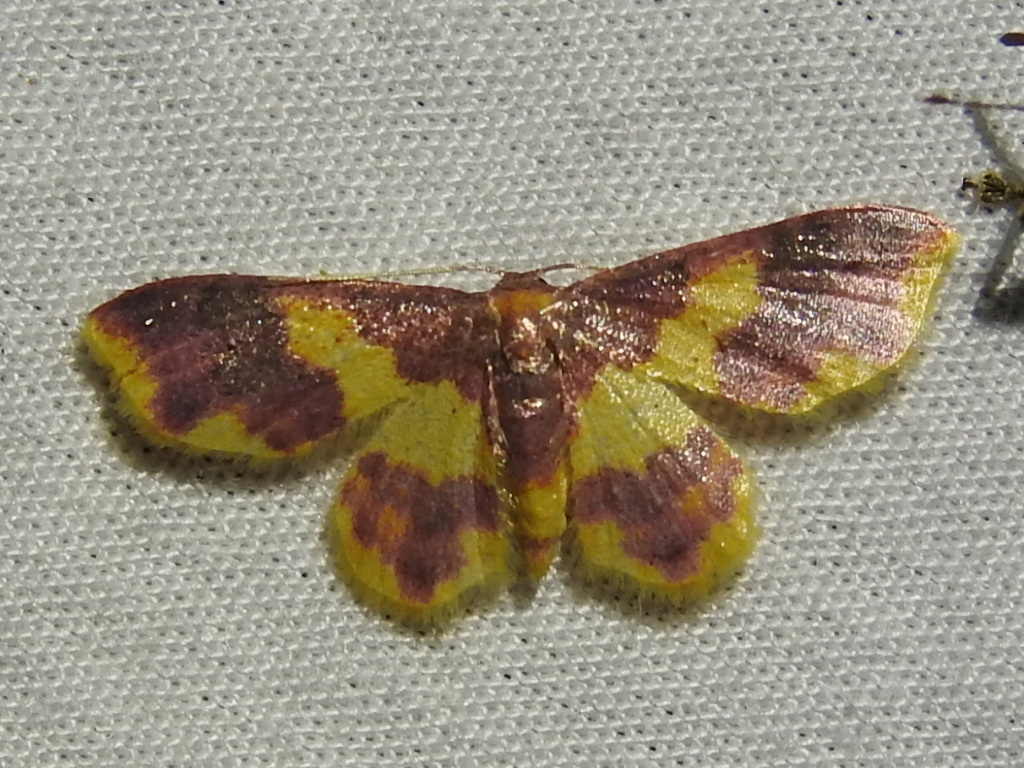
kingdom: Animalia
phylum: Arthropoda
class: Insecta
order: Lepidoptera
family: Geometridae
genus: Lophosis
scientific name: Lophosis labeculata
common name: Stained lophosis moth
